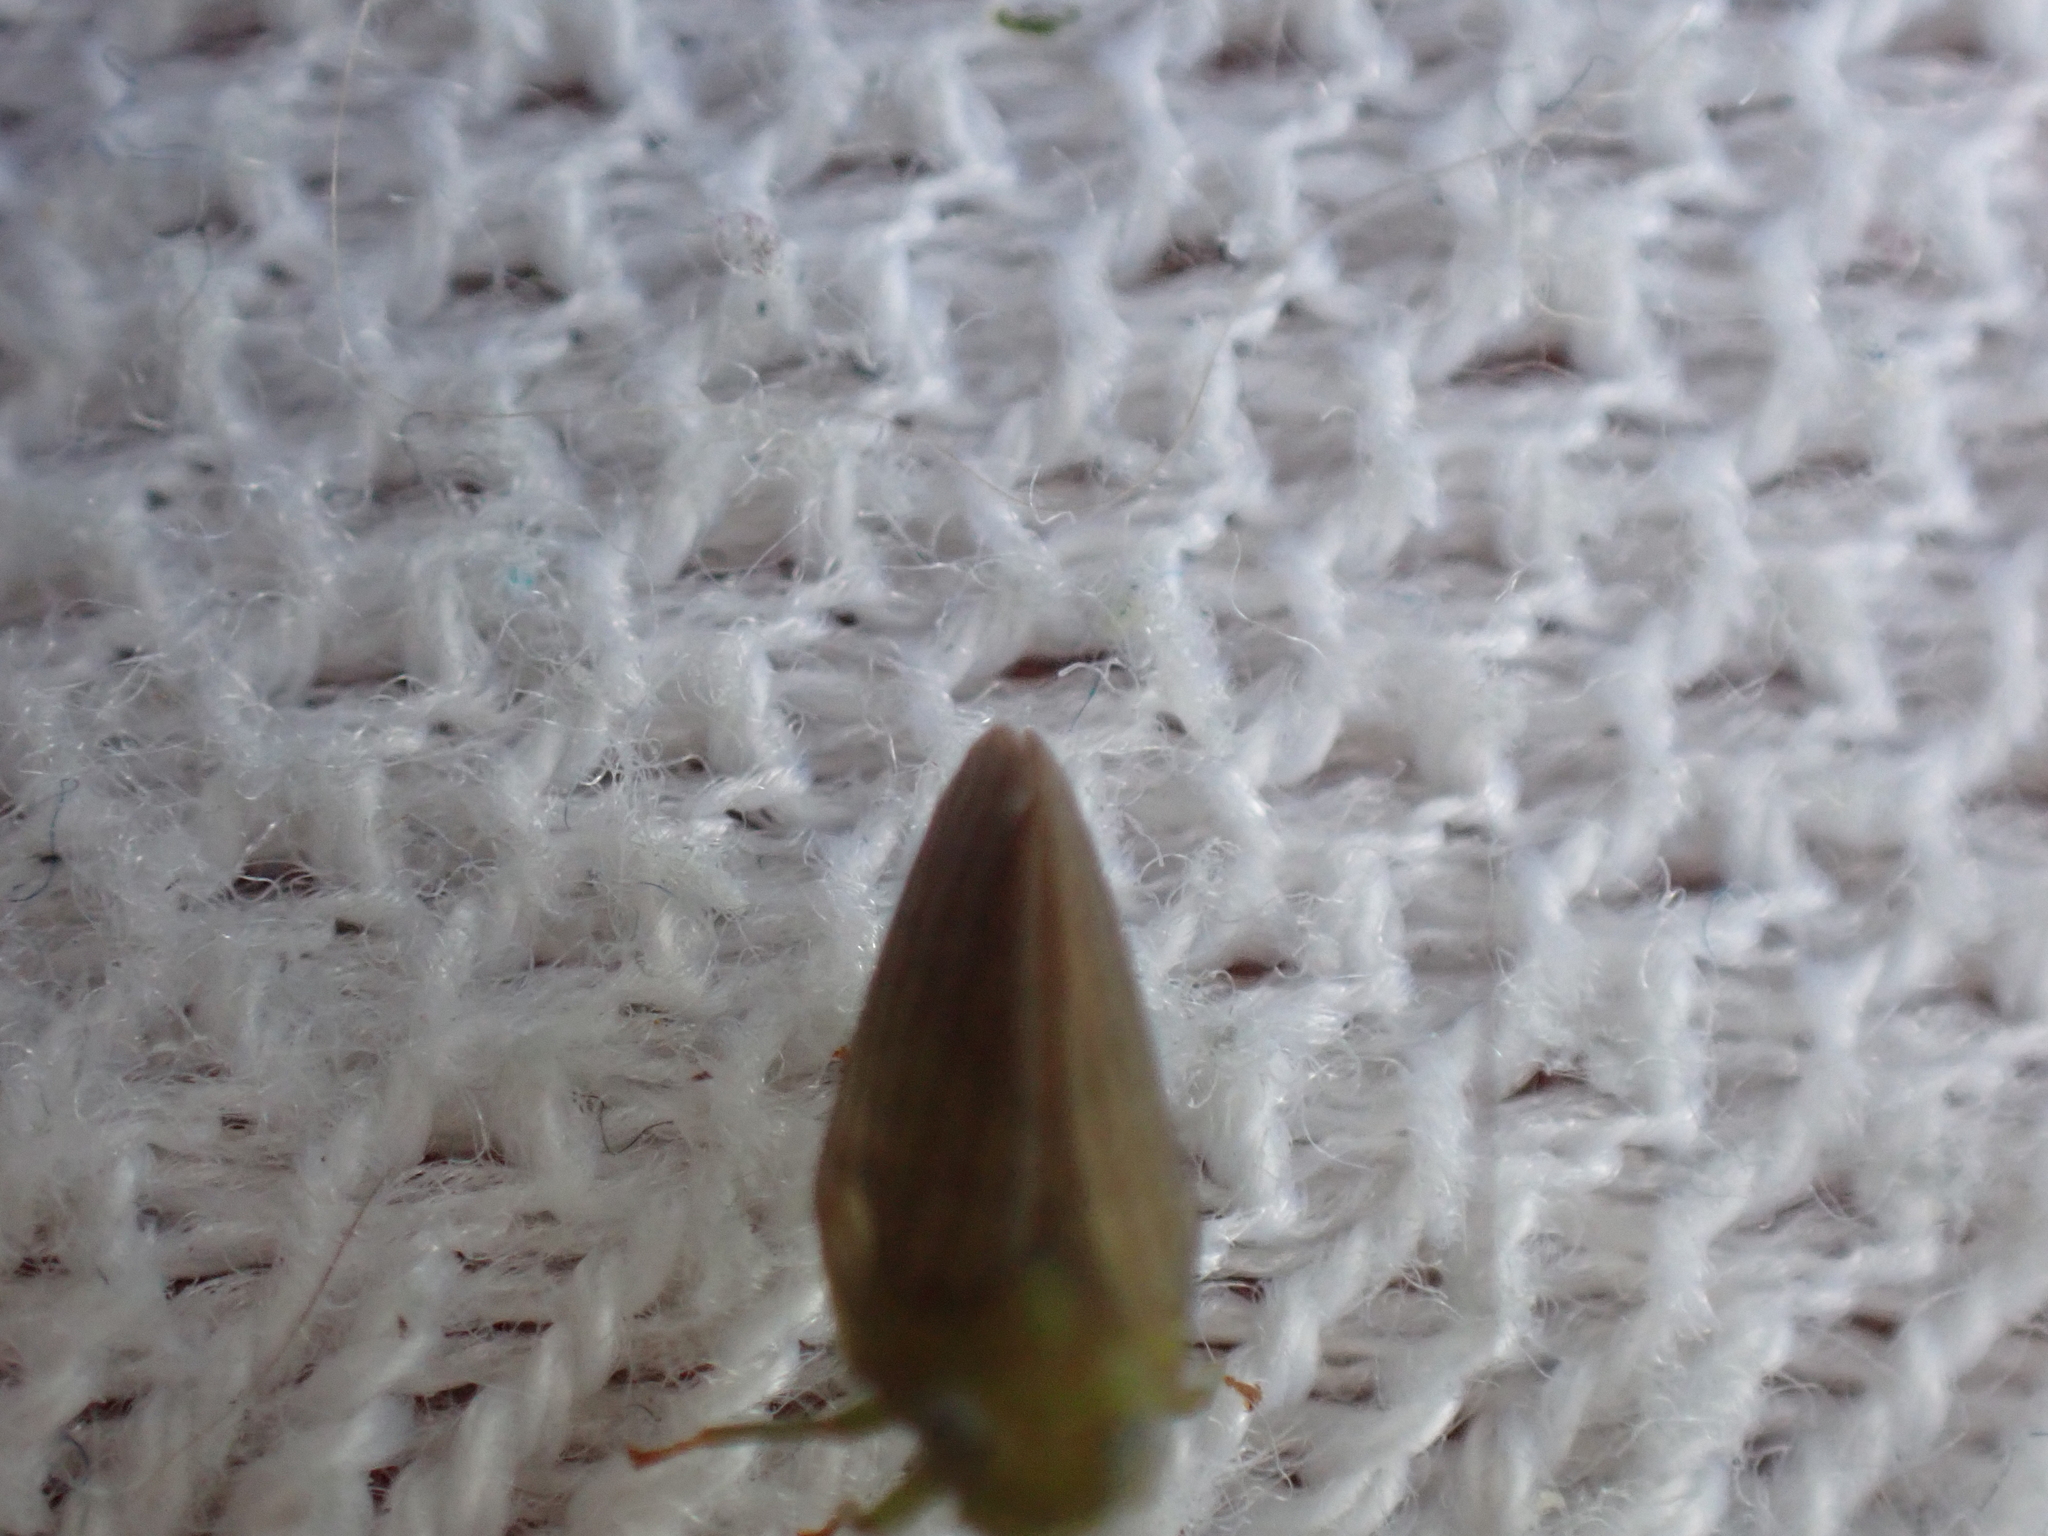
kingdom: Animalia
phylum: Arthropoda
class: Insecta
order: Hemiptera
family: Issidae
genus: Aplos
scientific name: Aplos simplex
